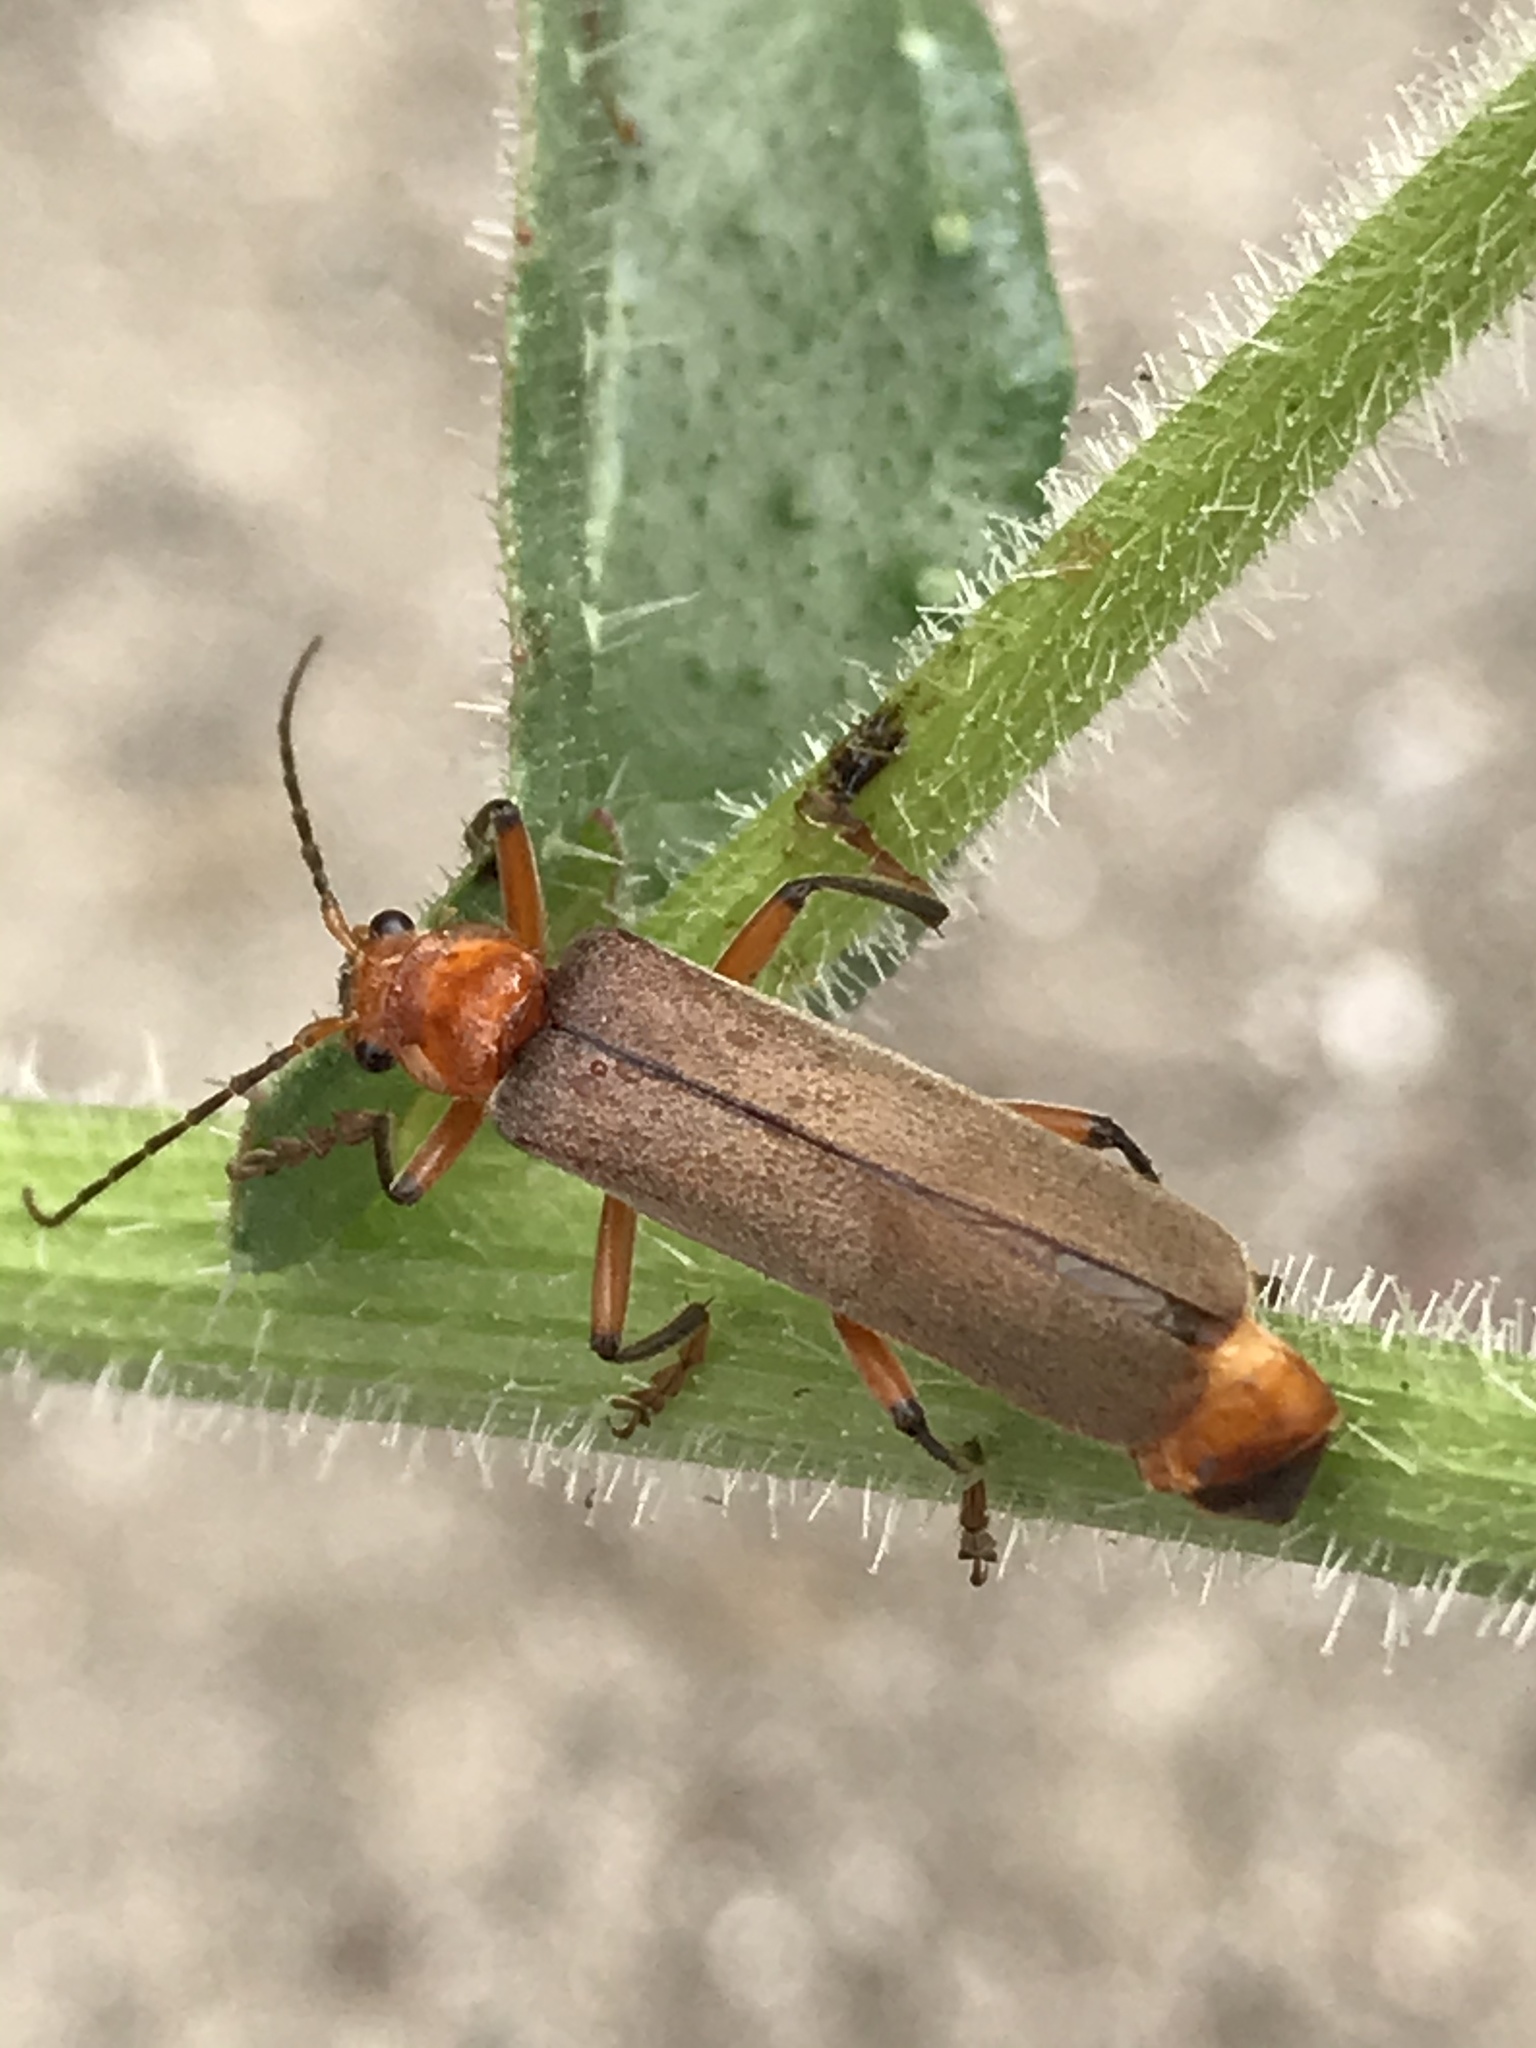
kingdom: Animalia
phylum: Arthropoda
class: Insecta
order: Coleoptera
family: Cantharidae
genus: Pacificanthia
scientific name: Pacificanthia consors
